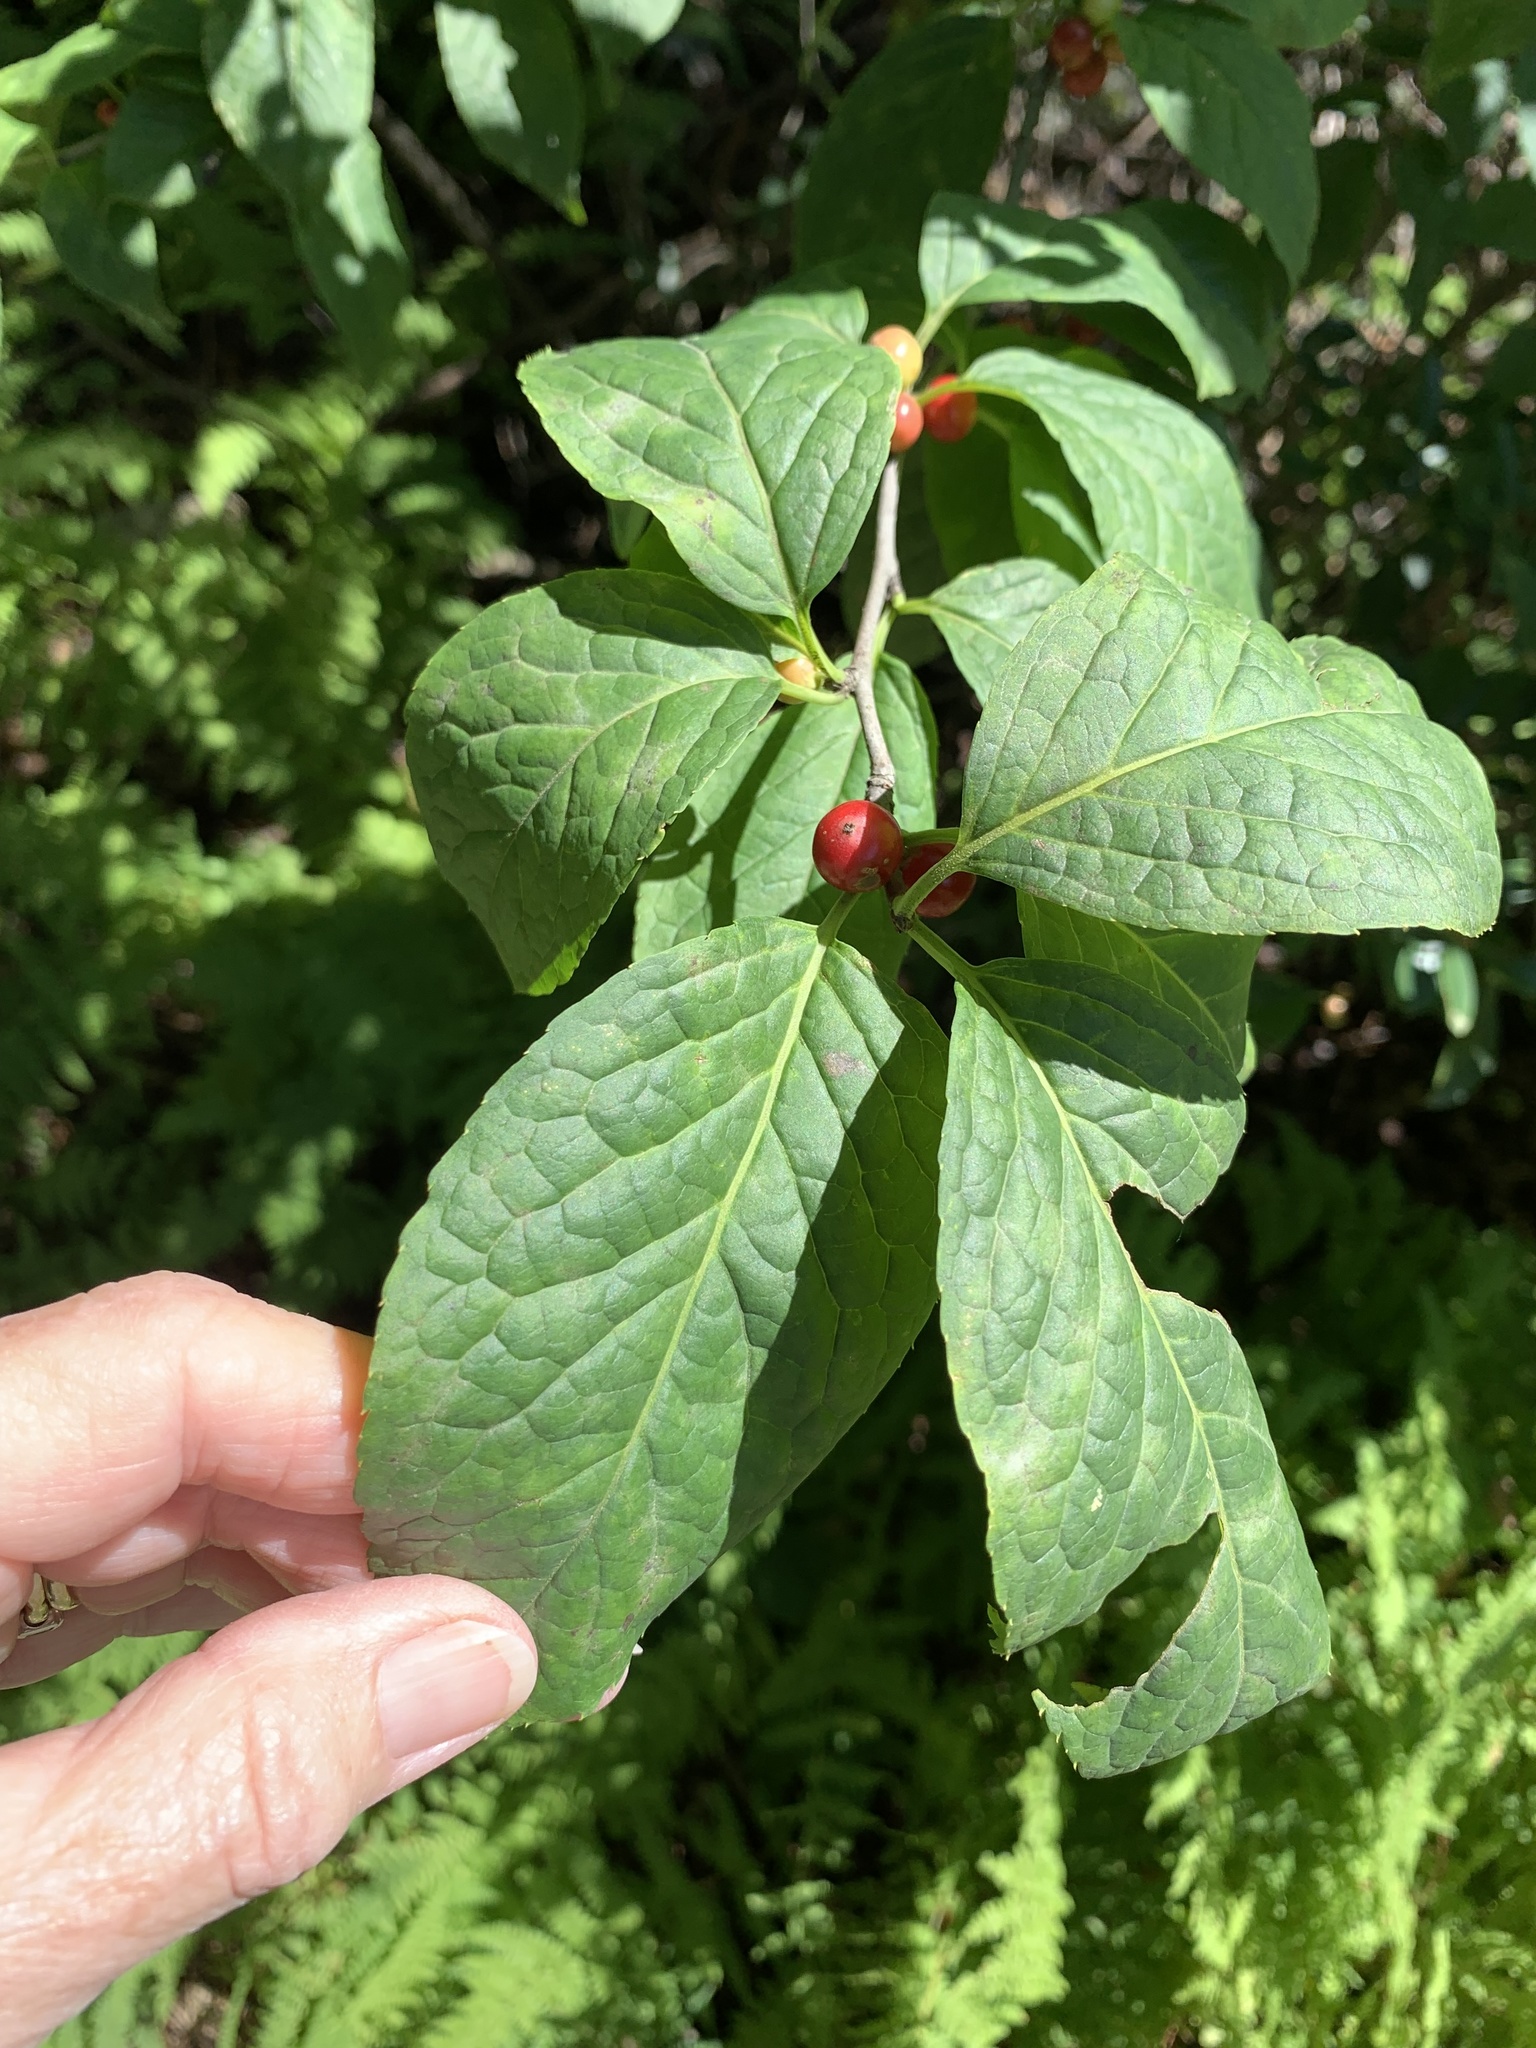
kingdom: Plantae
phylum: Tracheophyta
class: Magnoliopsida
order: Aquifoliales
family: Aquifoliaceae
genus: Ilex
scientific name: Ilex montana
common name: Mountain winterberry
